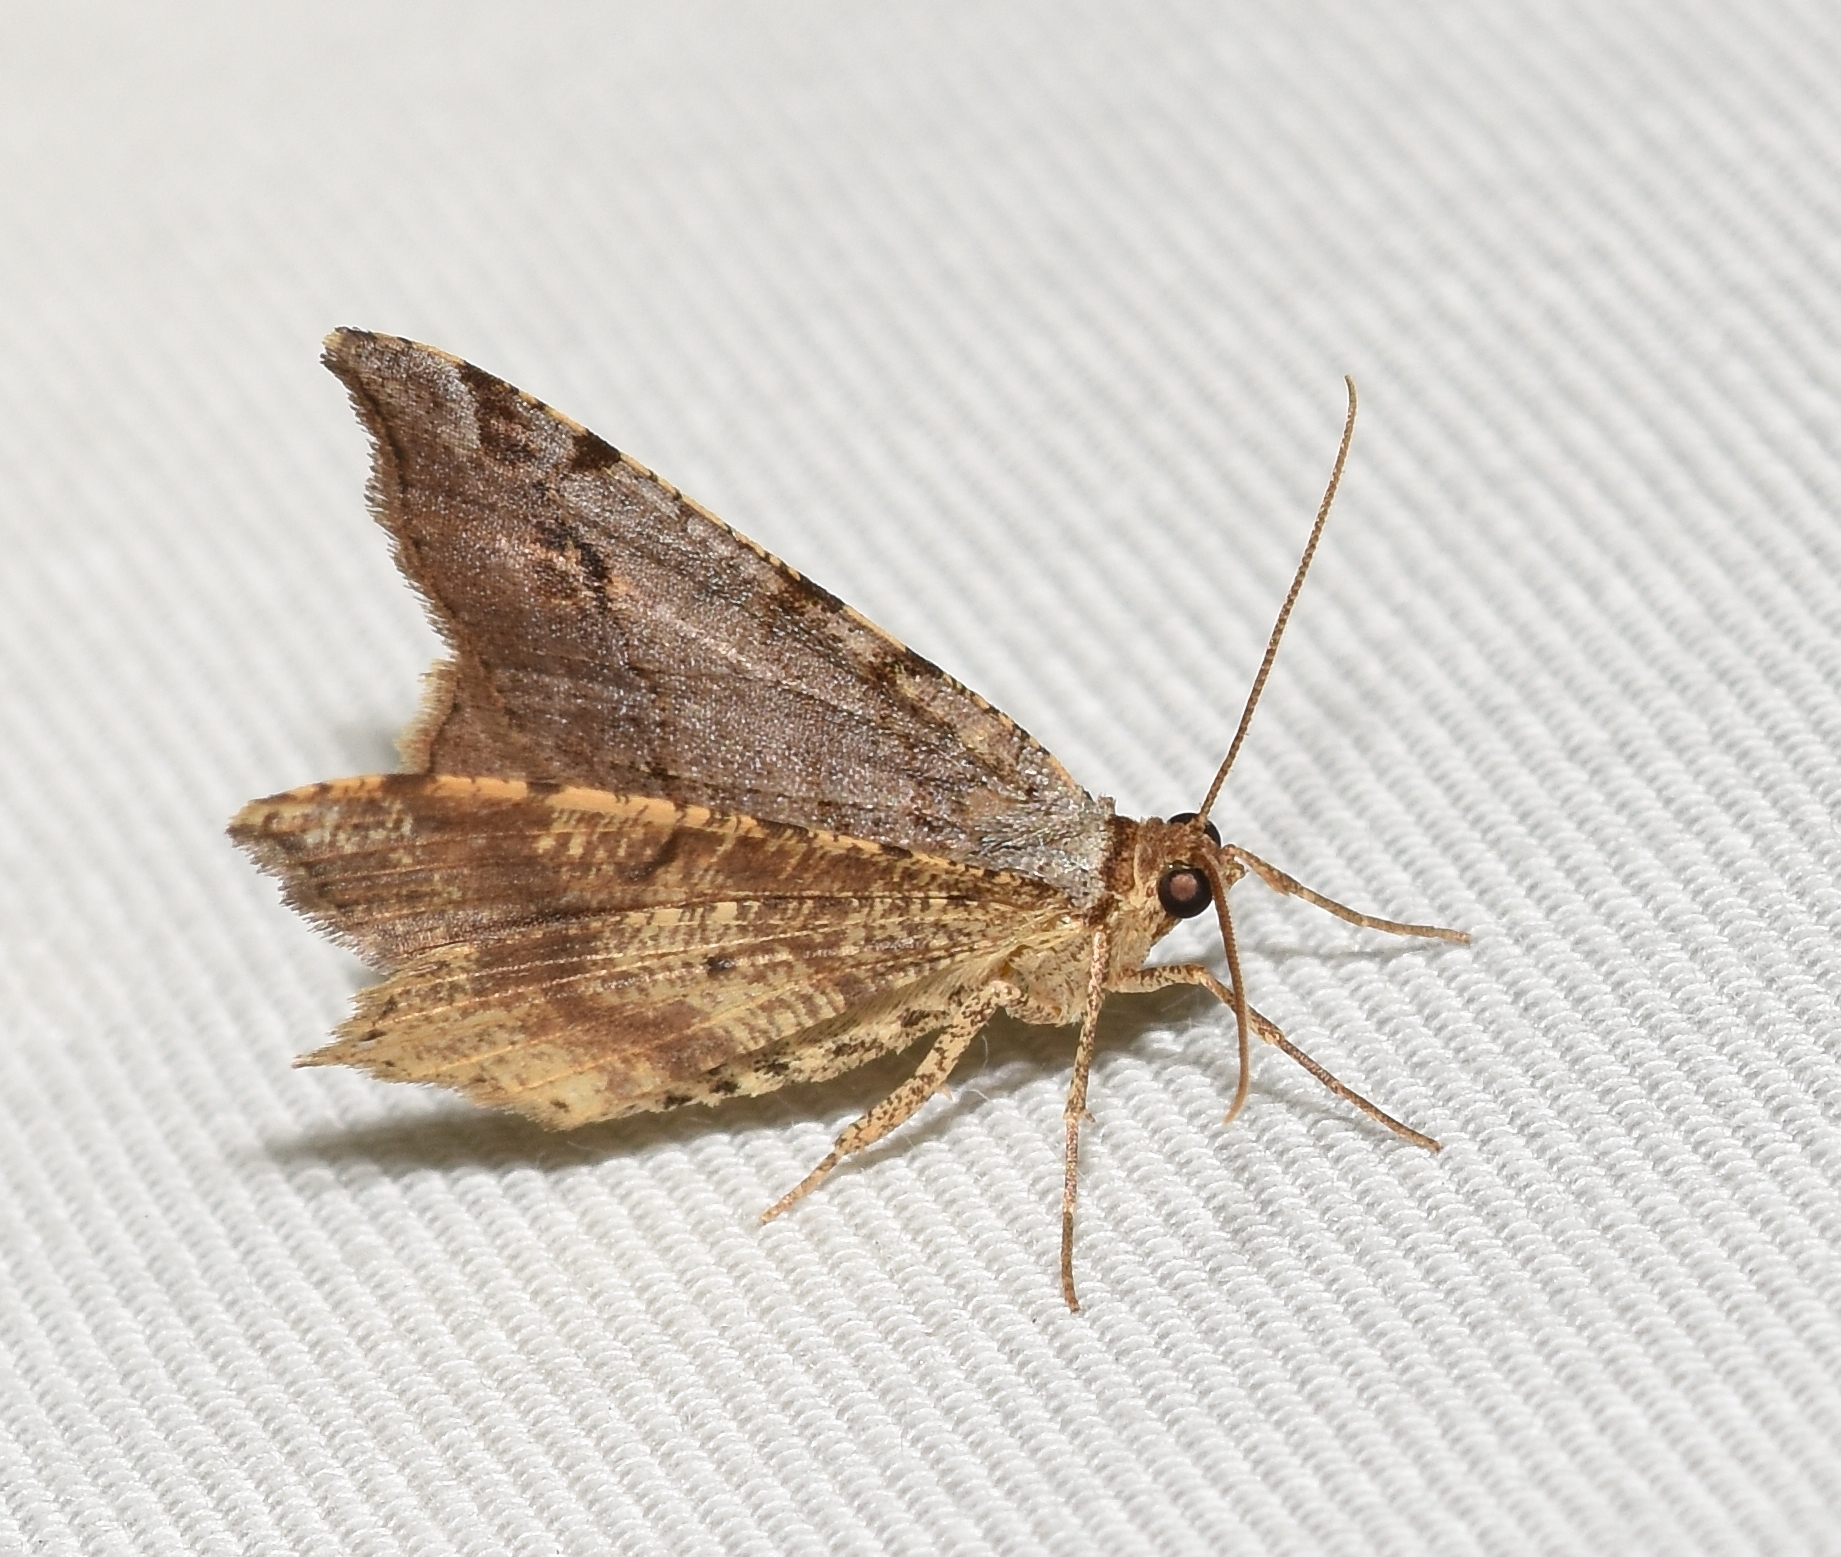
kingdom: Animalia
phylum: Arthropoda
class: Insecta
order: Lepidoptera
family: Geometridae
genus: Macaria
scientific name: Macaria multilineata
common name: Many-lined angle
